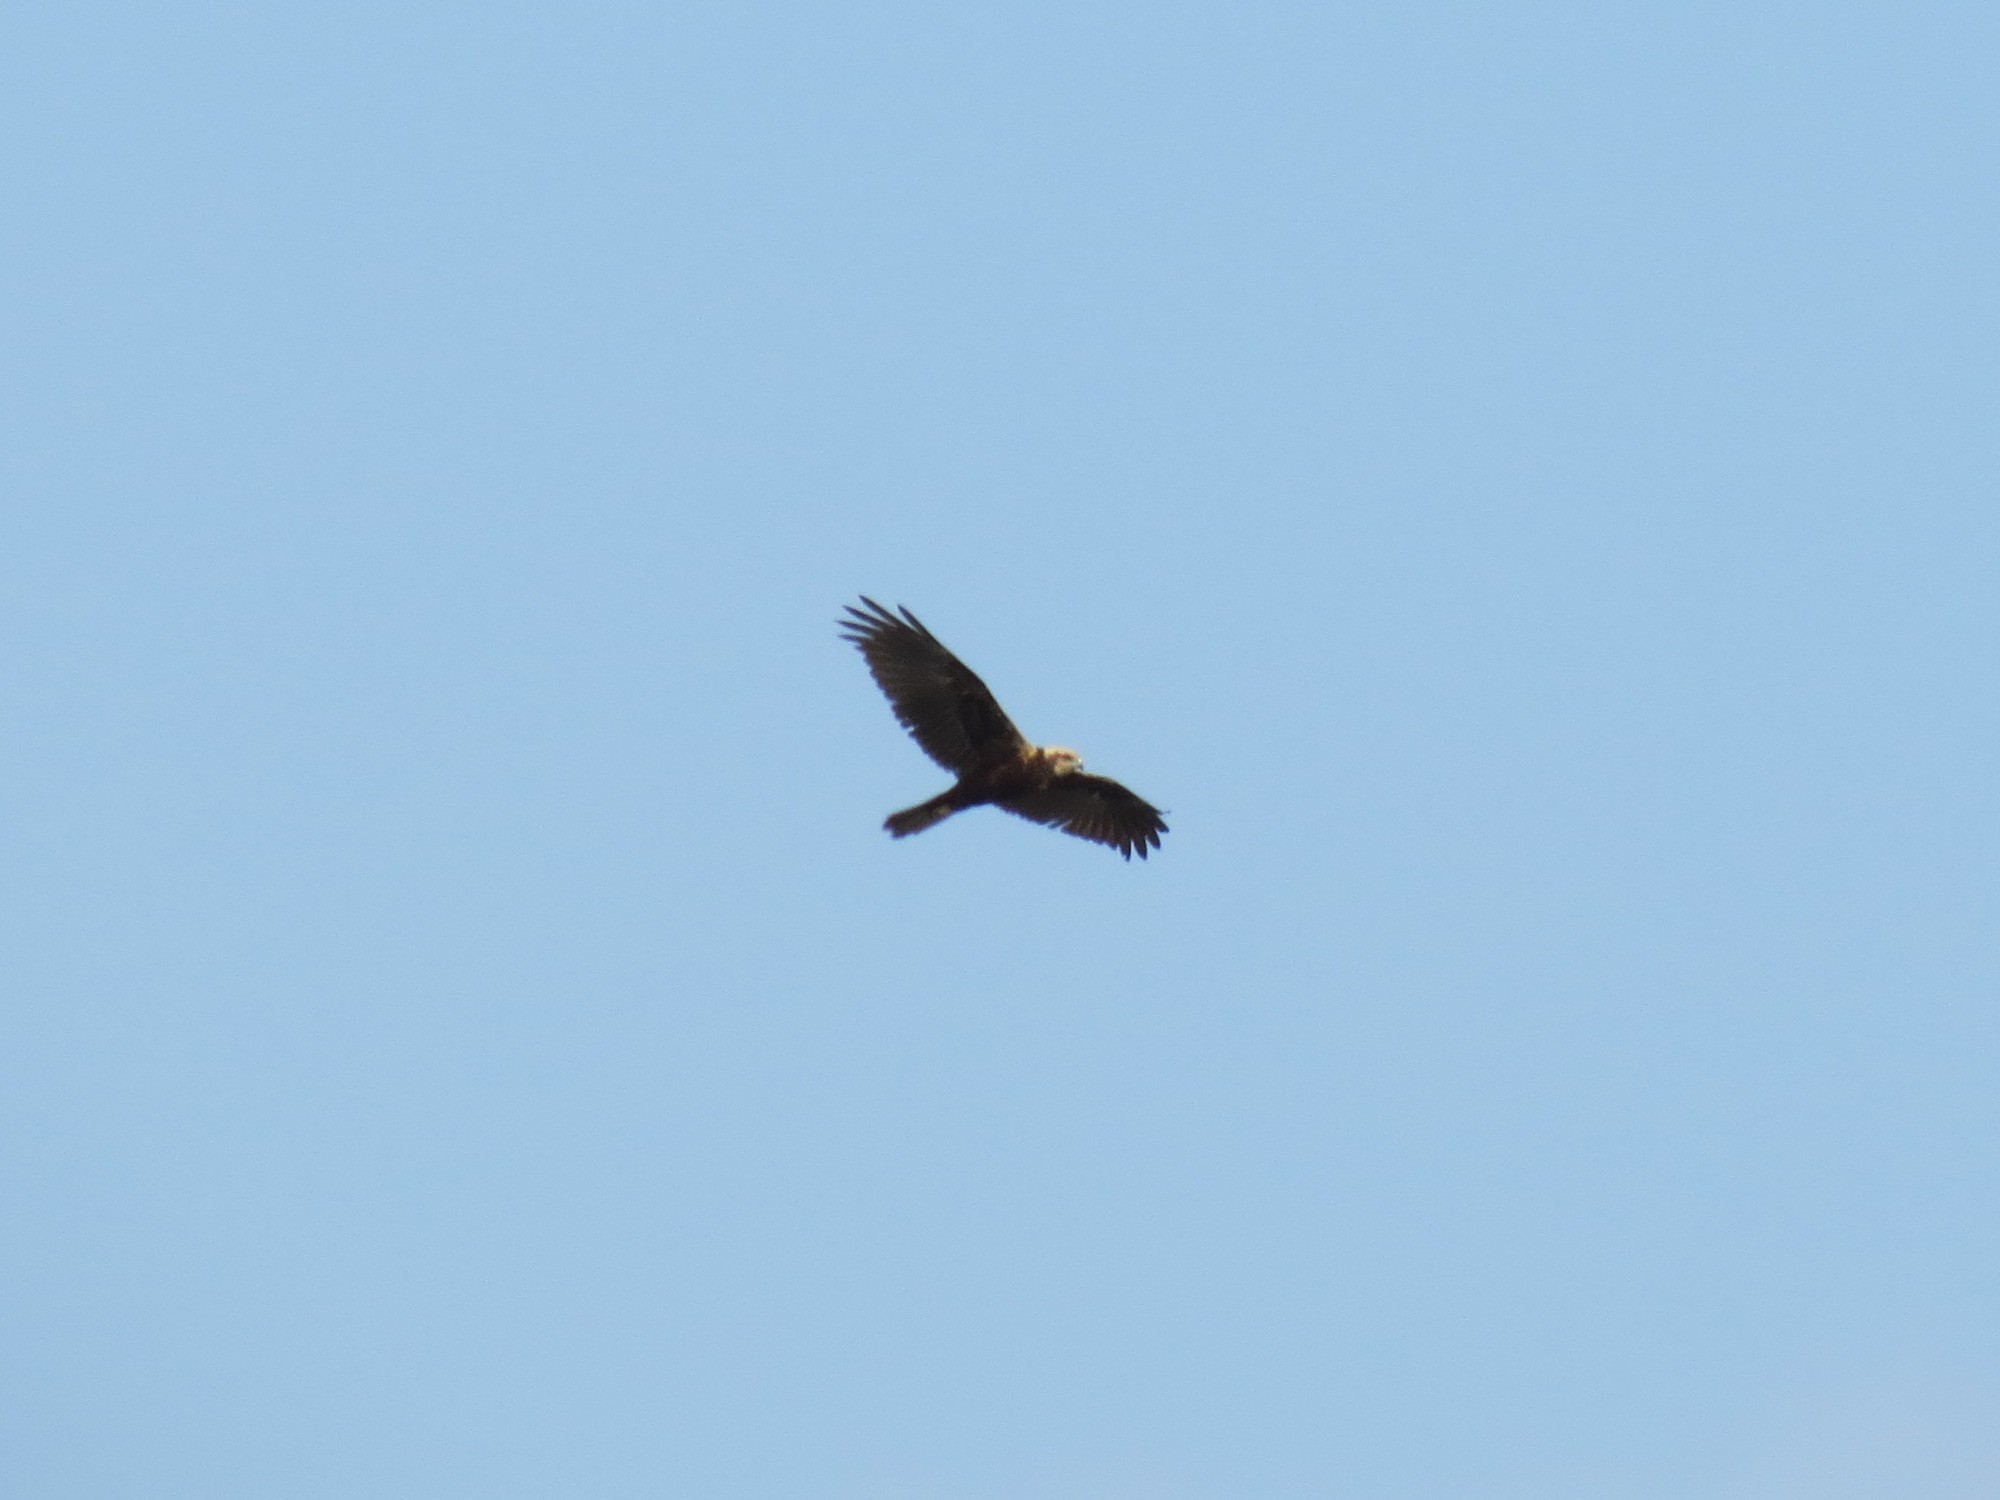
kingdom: Animalia
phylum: Chordata
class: Aves
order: Accipitriformes
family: Accipitridae
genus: Circus
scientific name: Circus aeruginosus
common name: Western marsh harrier
